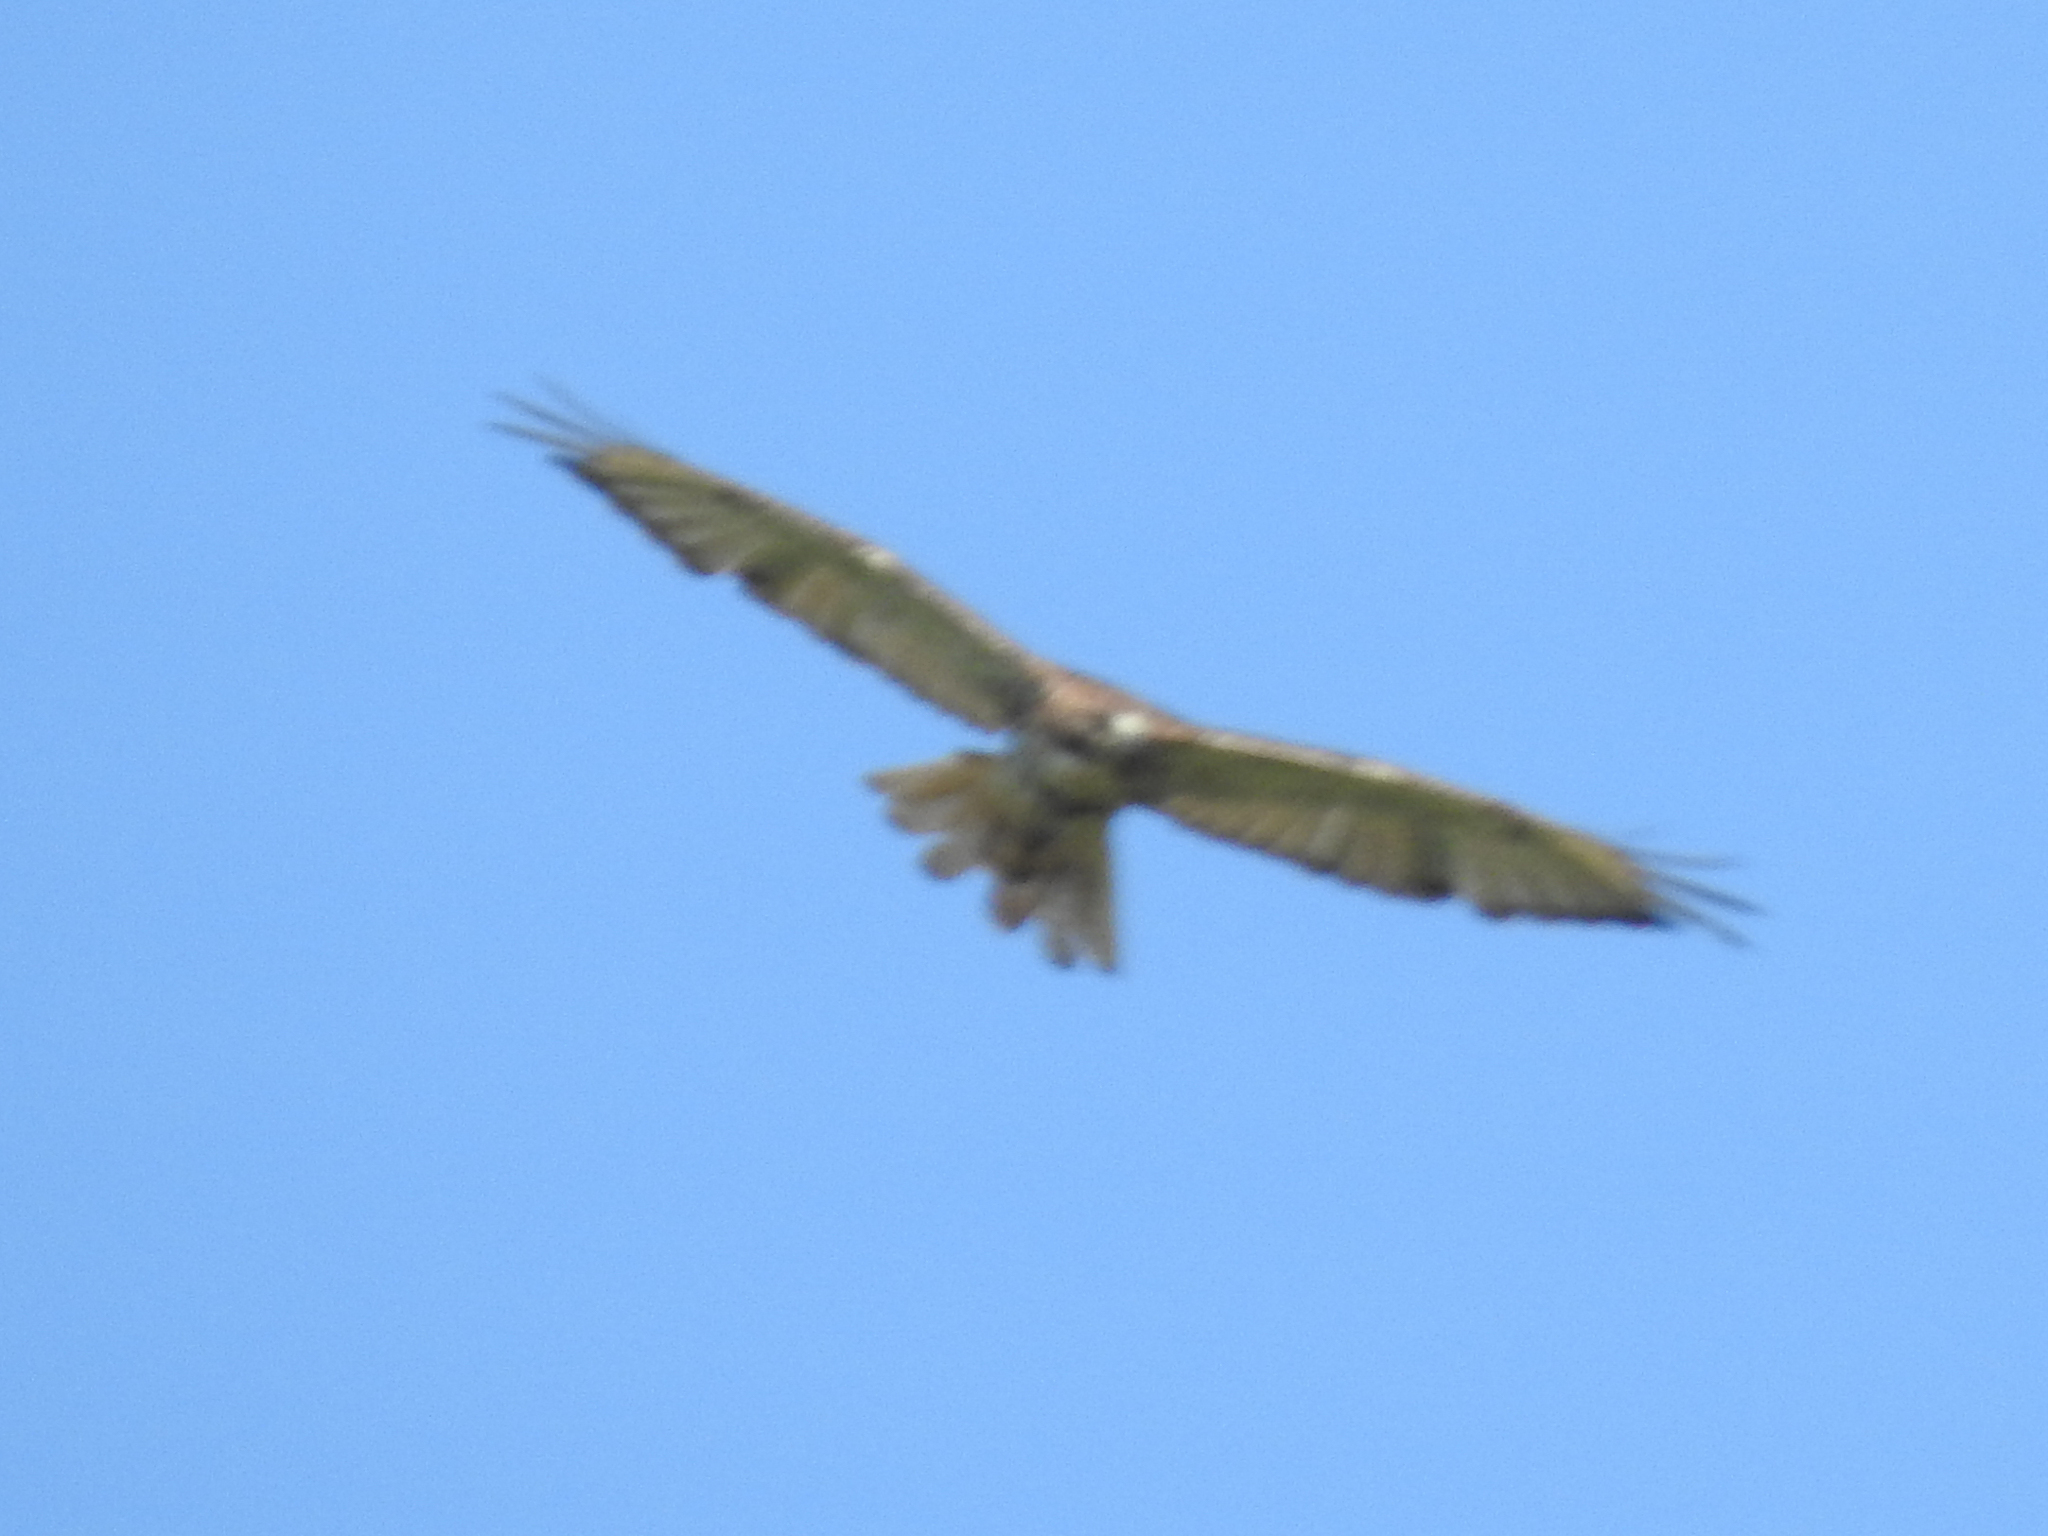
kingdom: Animalia
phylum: Chordata
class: Aves
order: Accipitriformes
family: Accipitridae
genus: Buteo
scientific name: Buteo jamaicensis
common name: Red-tailed hawk
